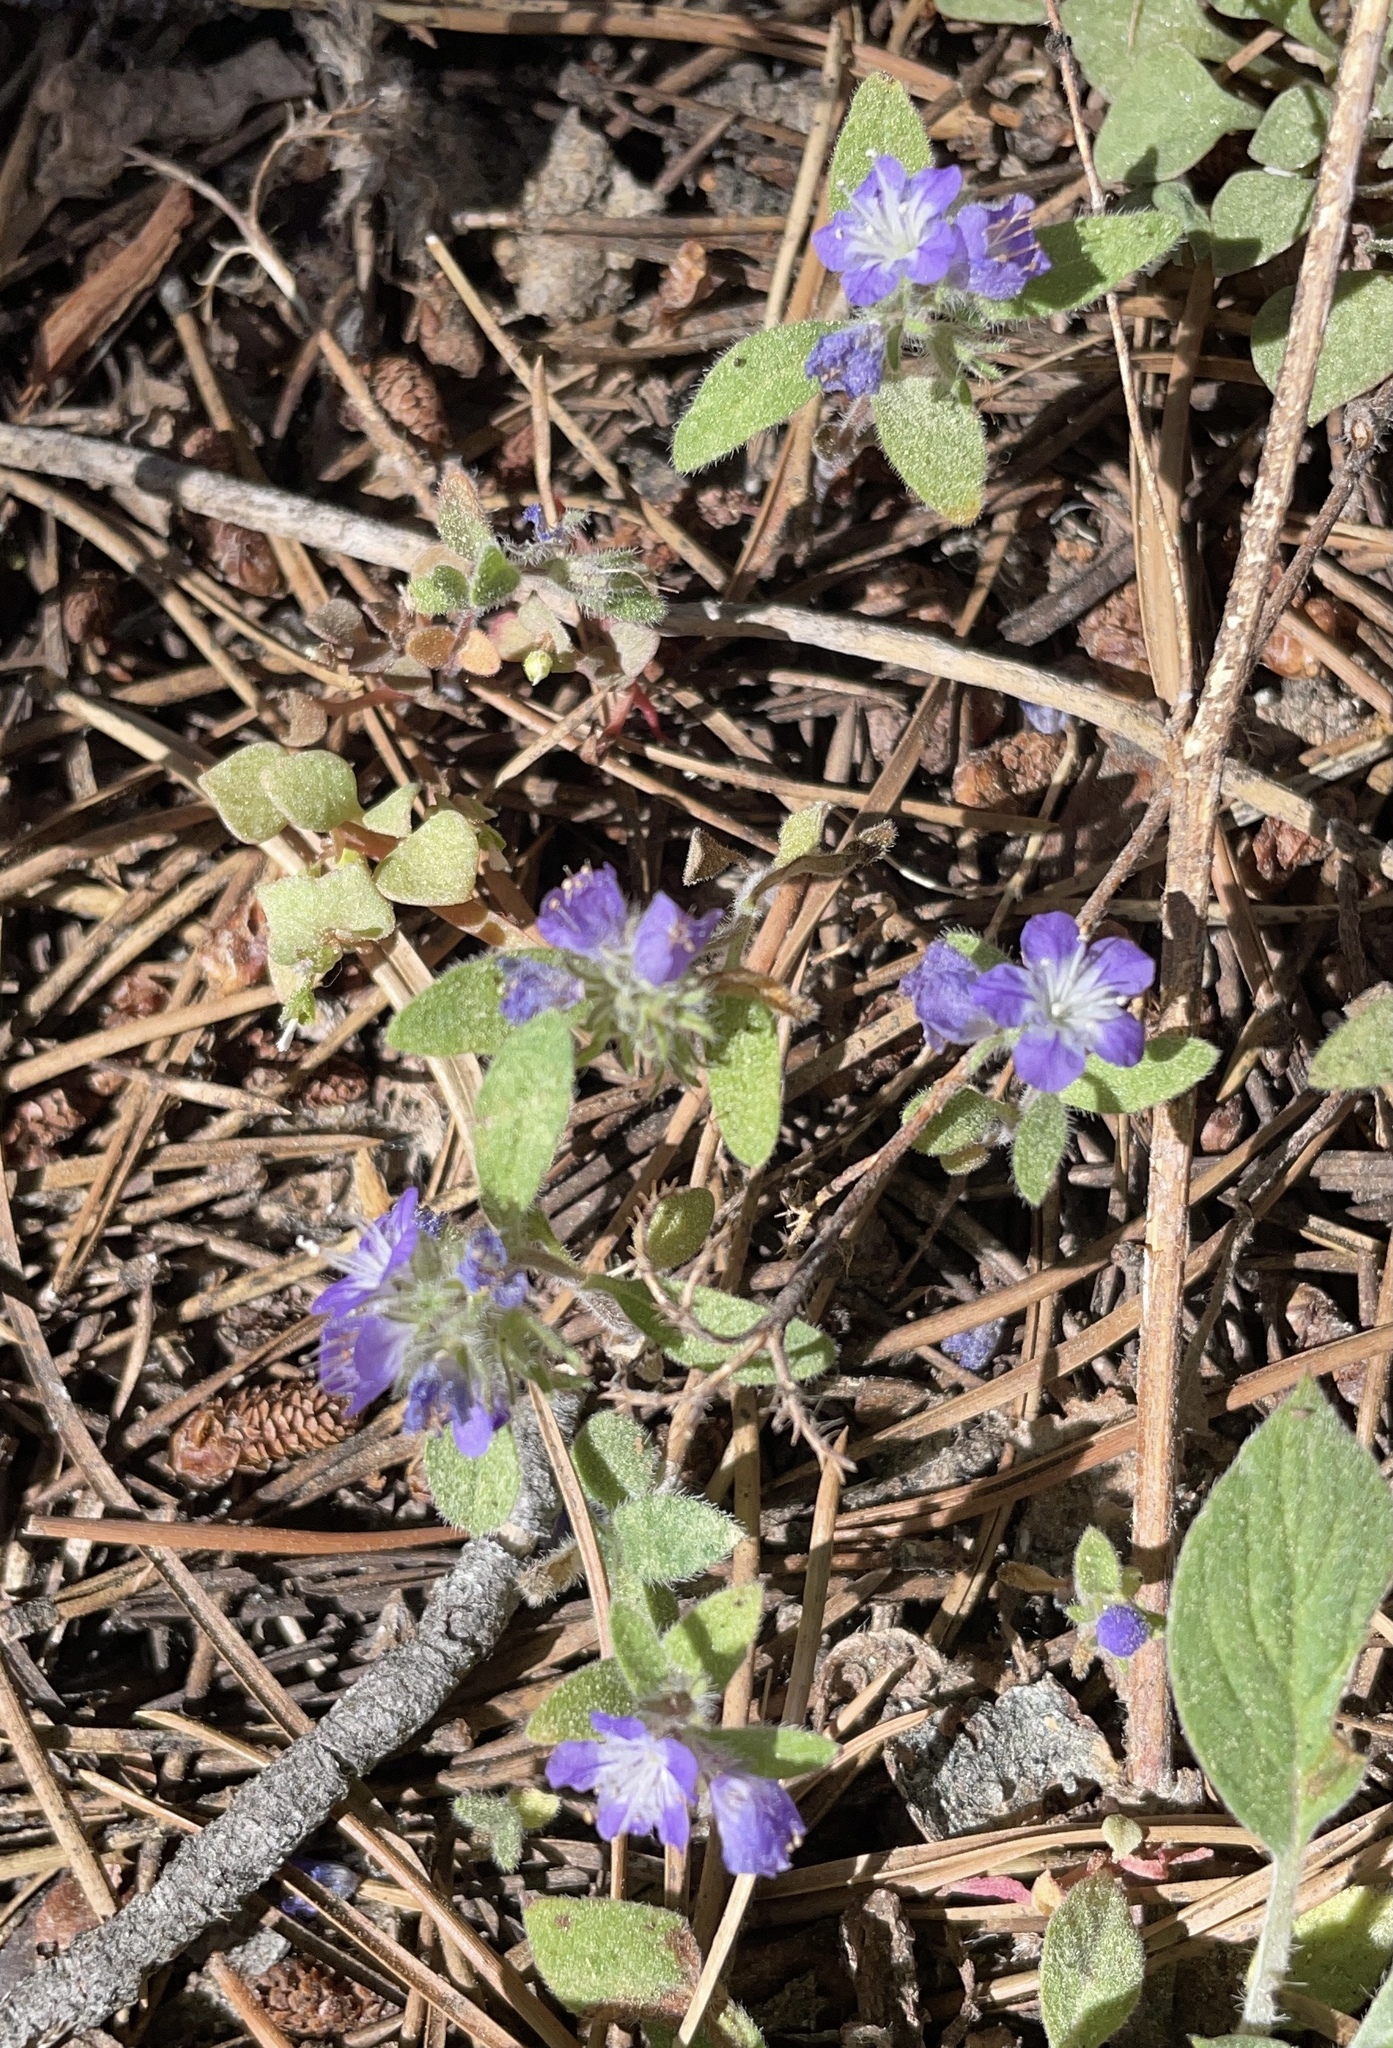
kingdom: Plantae
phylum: Tracheophyta
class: Magnoliopsida
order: Boraginales
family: Hydrophyllaceae
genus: Phacelia
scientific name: Phacelia humilis
